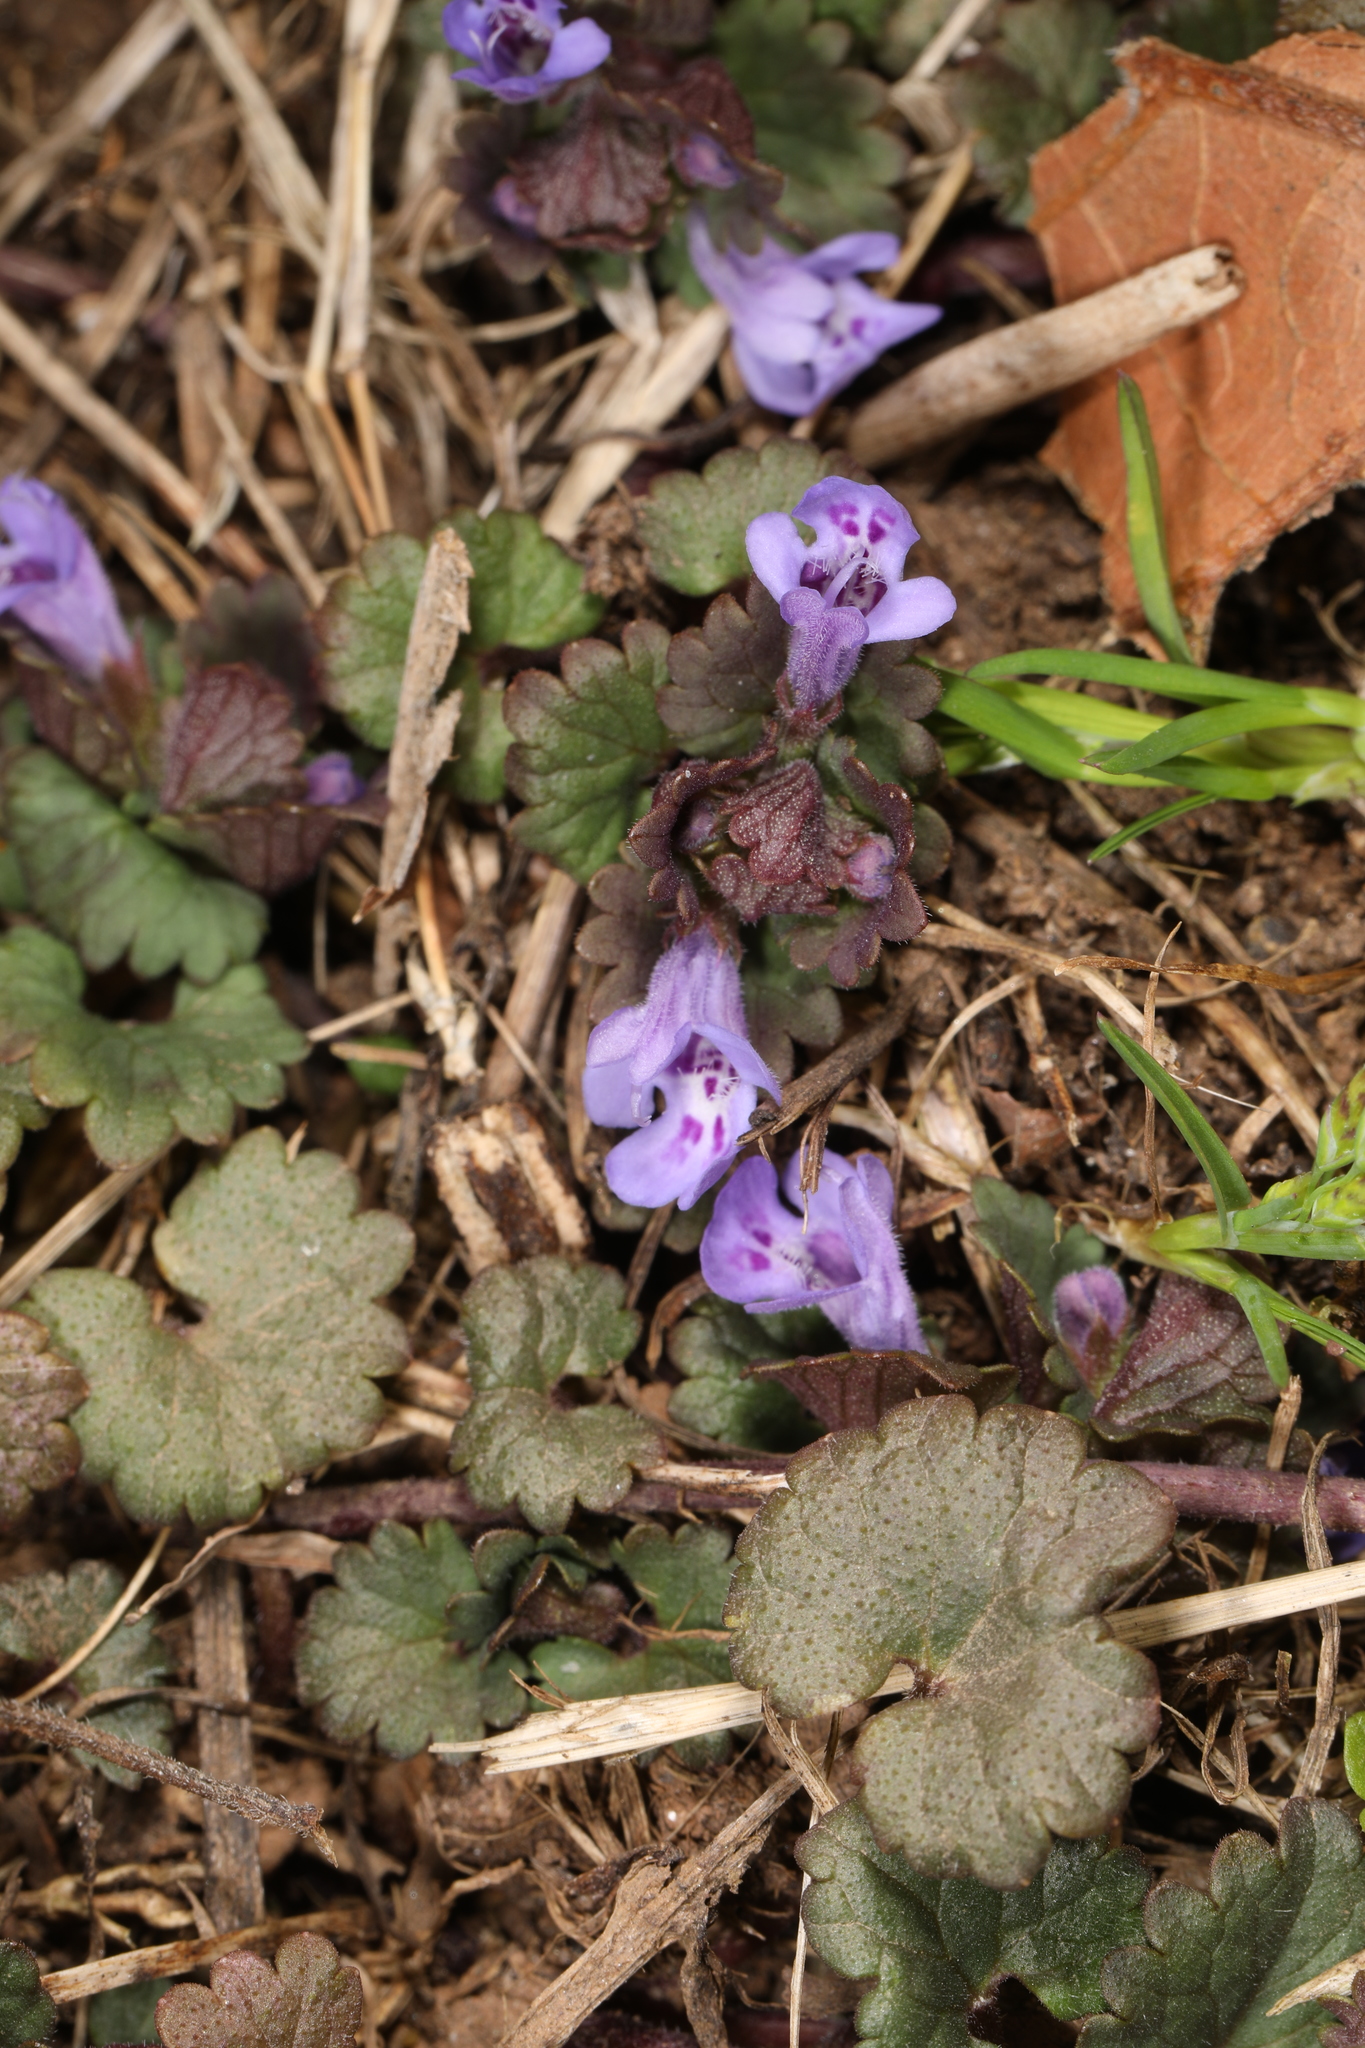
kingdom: Plantae
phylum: Tracheophyta
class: Magnoliopsida
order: Lamiales
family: Lamiaceae
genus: Glechoma
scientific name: Glechoma hederacea
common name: Ground ivy
